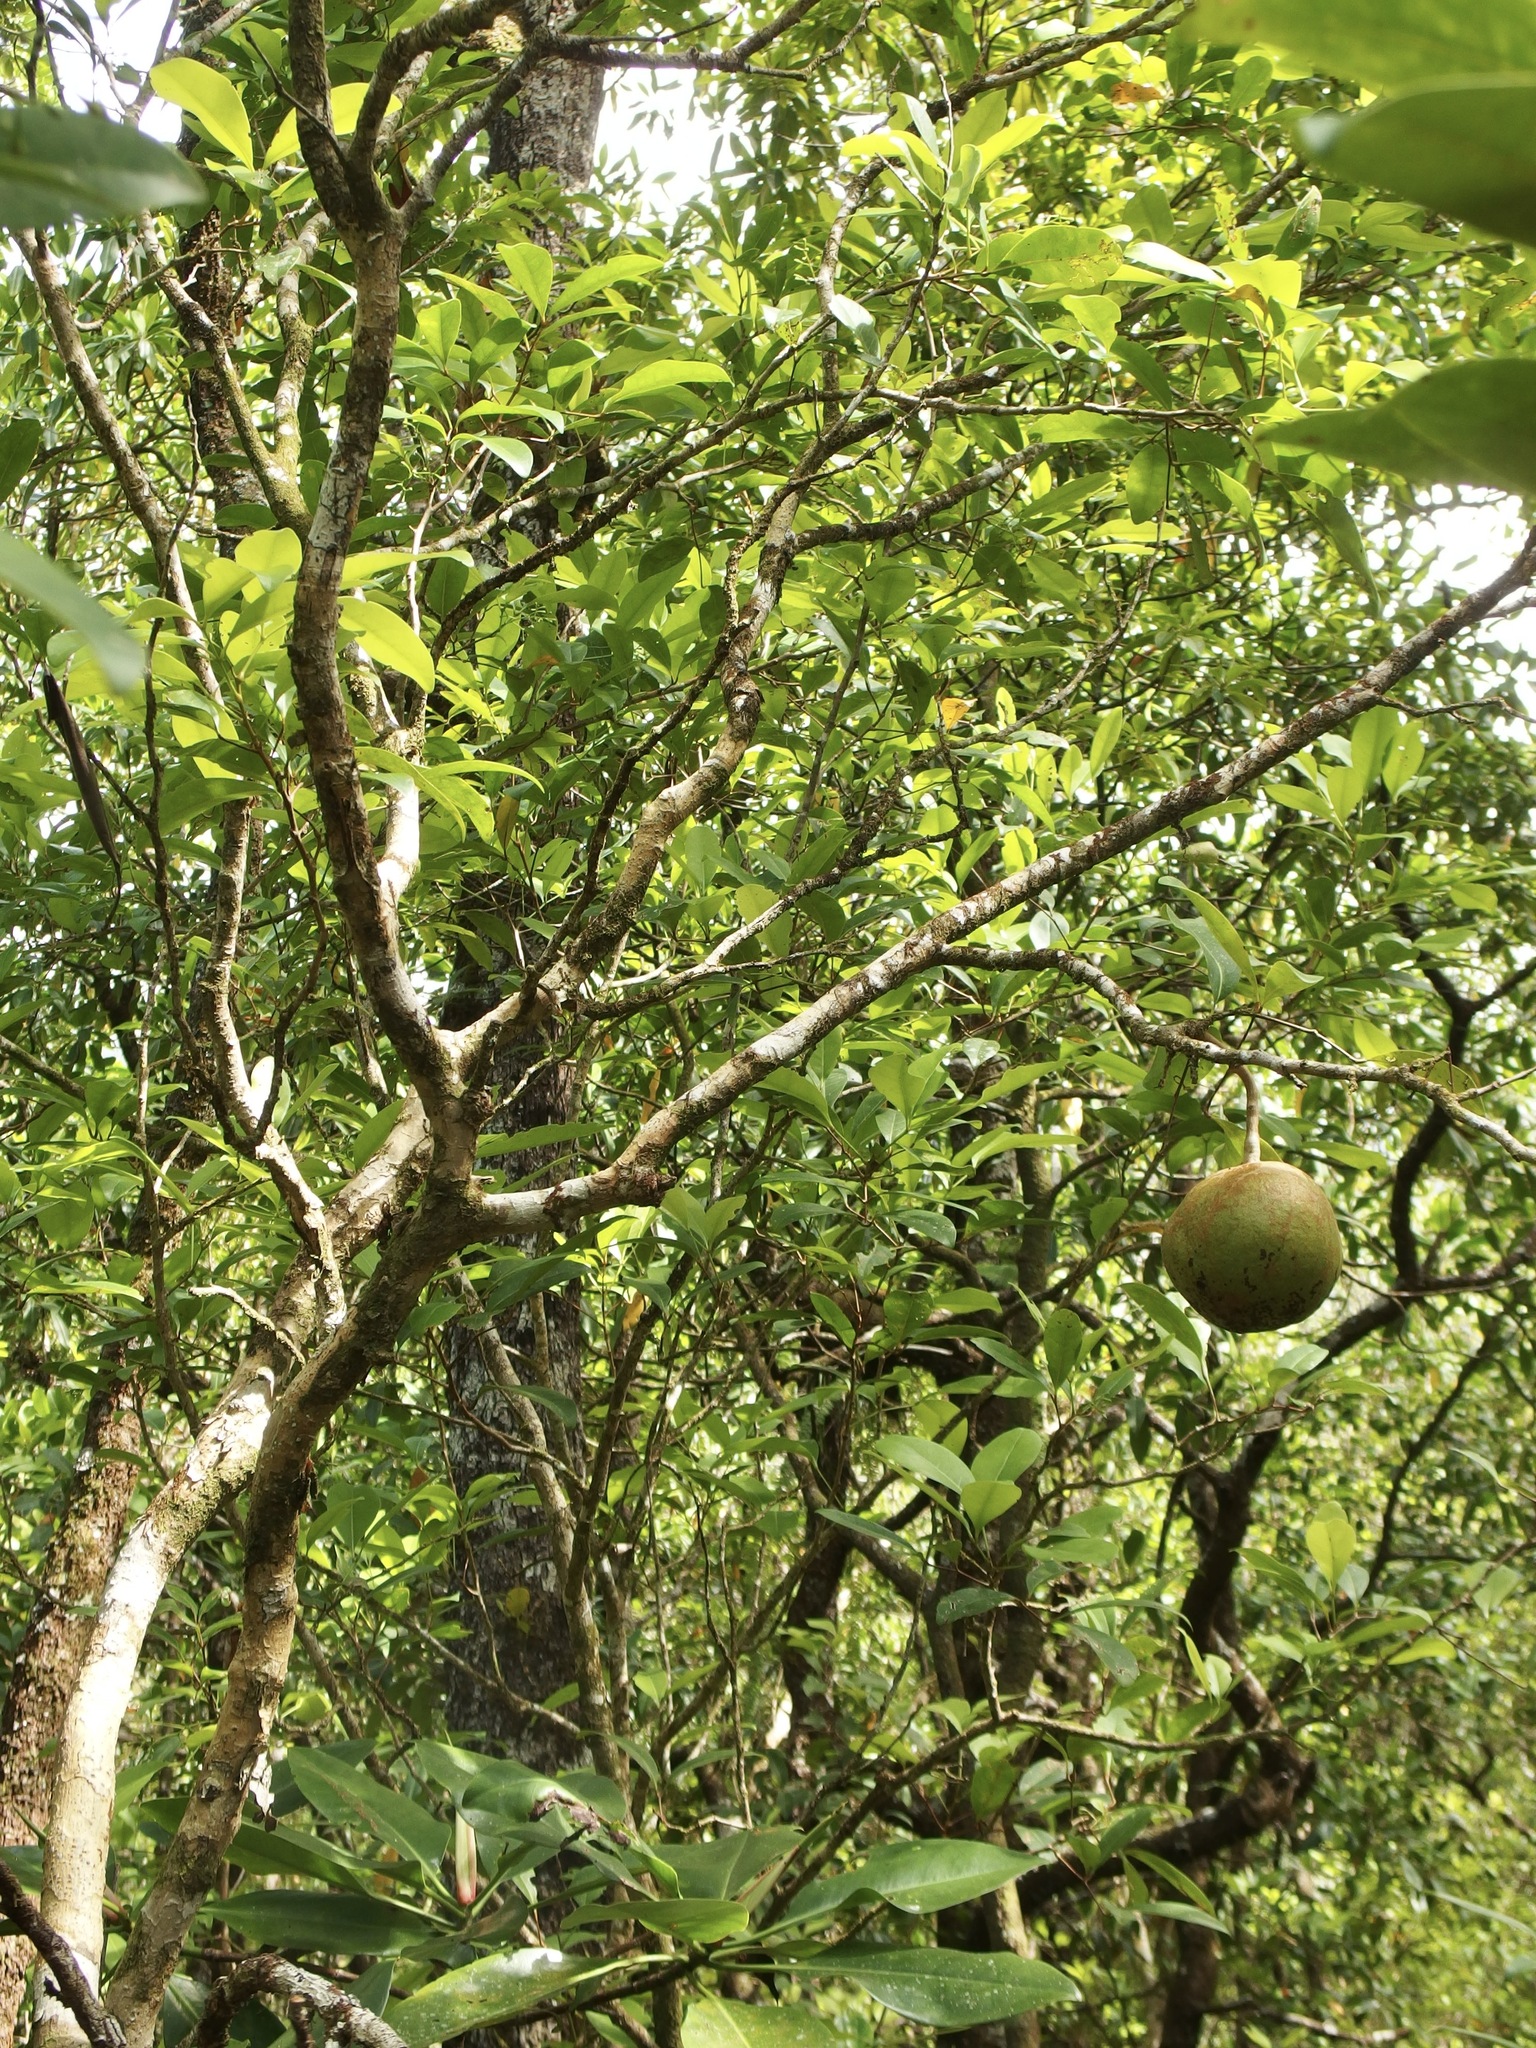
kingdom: Plantae
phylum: Tracheophyta
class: Magnoliopsida
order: Sapindales
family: Meliaceae
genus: Xylocarpus
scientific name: Xylocarpus granatum
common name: Apple mangrove
